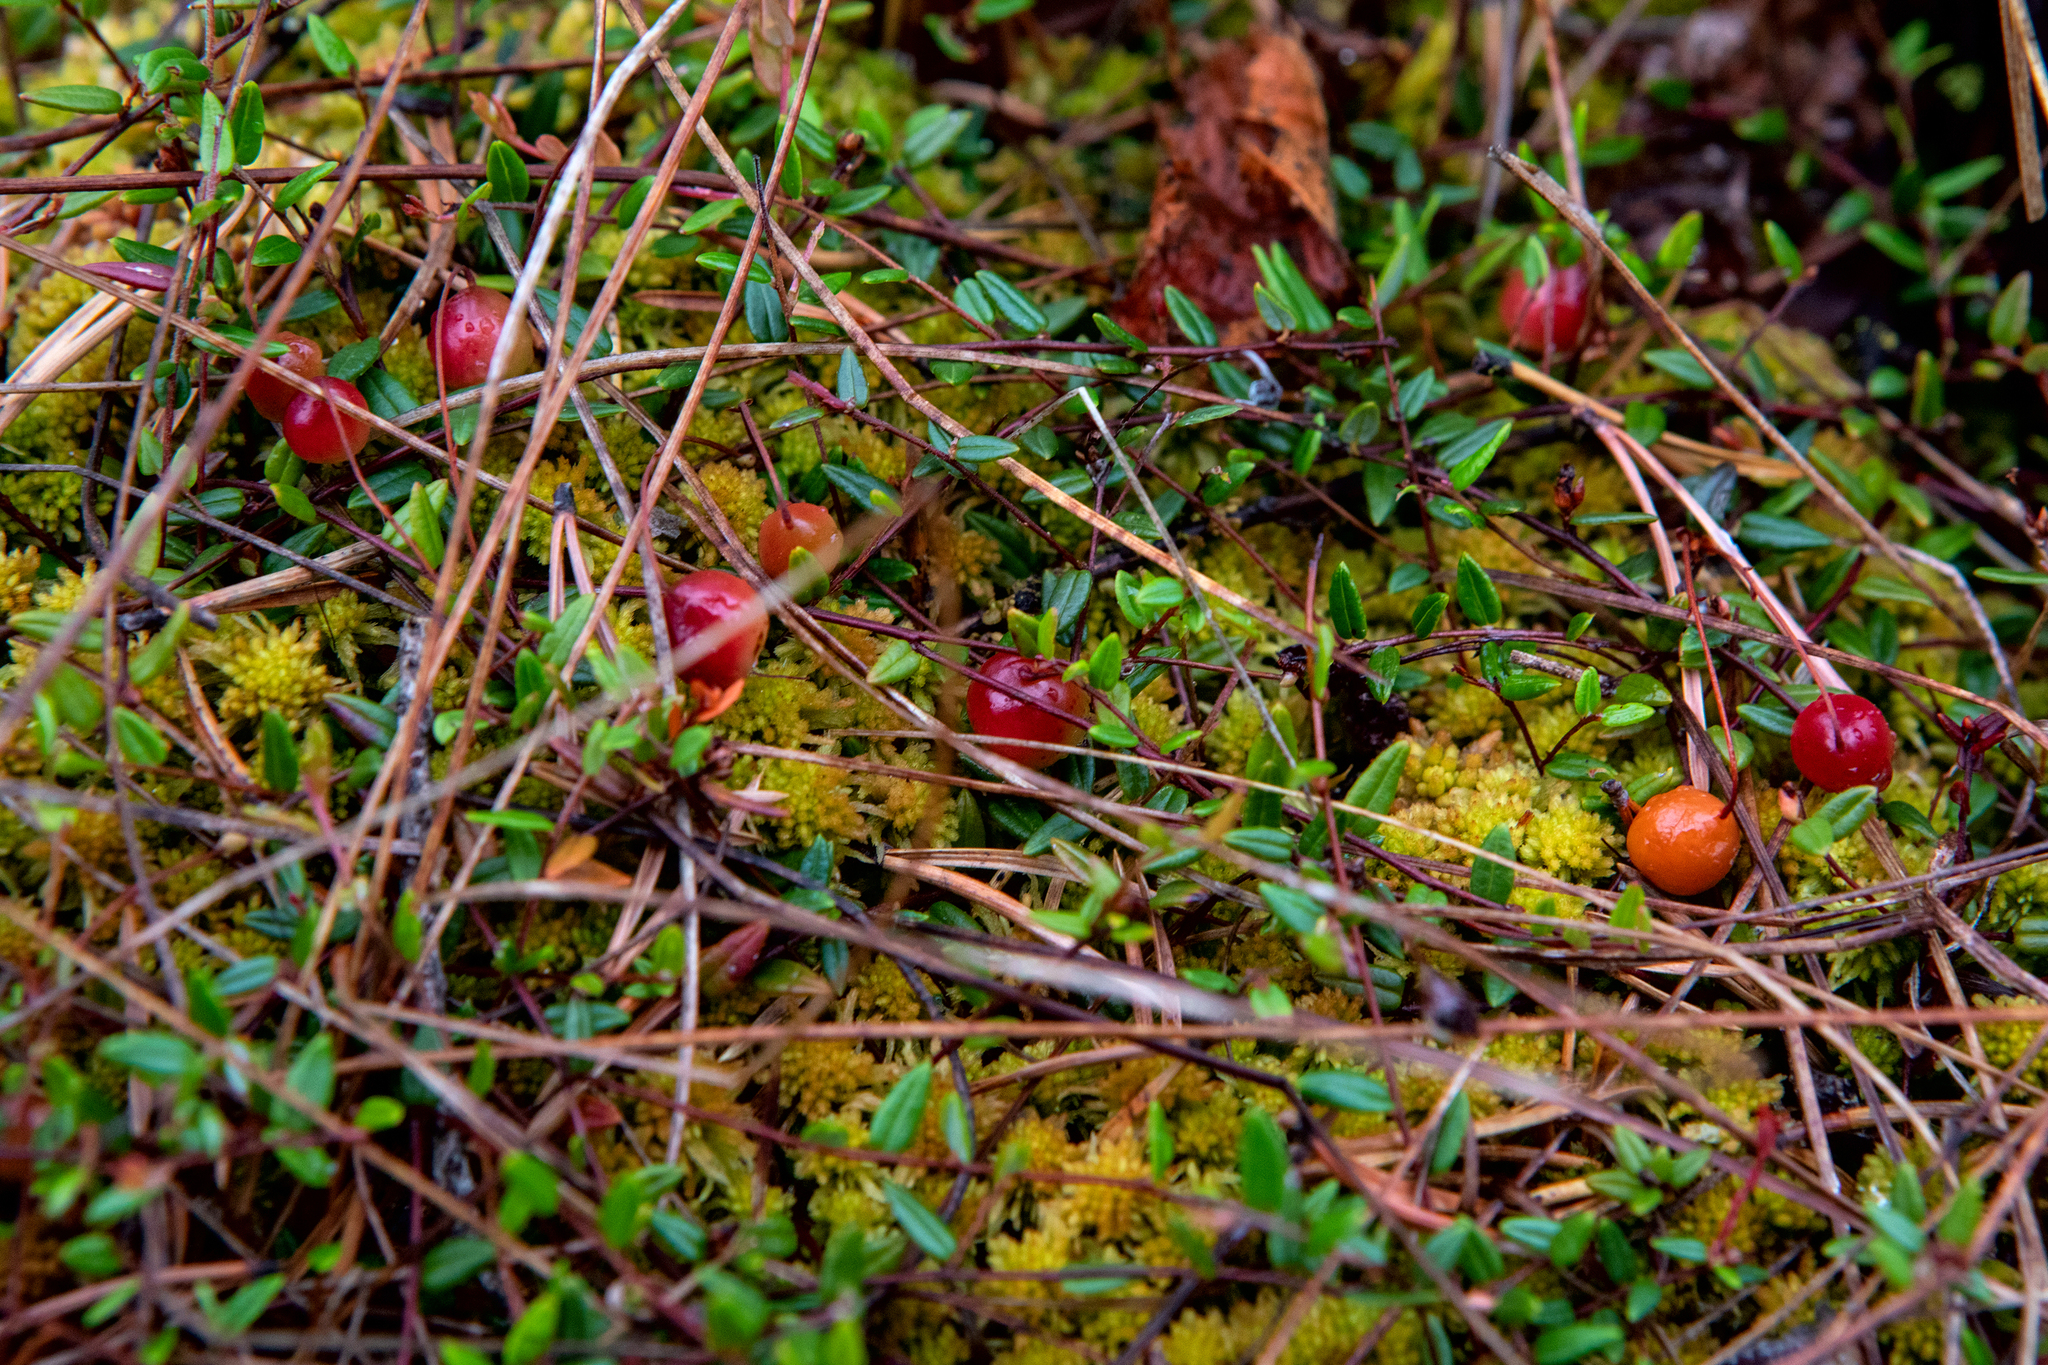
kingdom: Plantae
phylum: Tracheophyta
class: Magnoliopsida
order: Ericales
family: Ericaceae
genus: Vaccinium
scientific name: Vaccinium oxycoccos
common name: Cranberry
